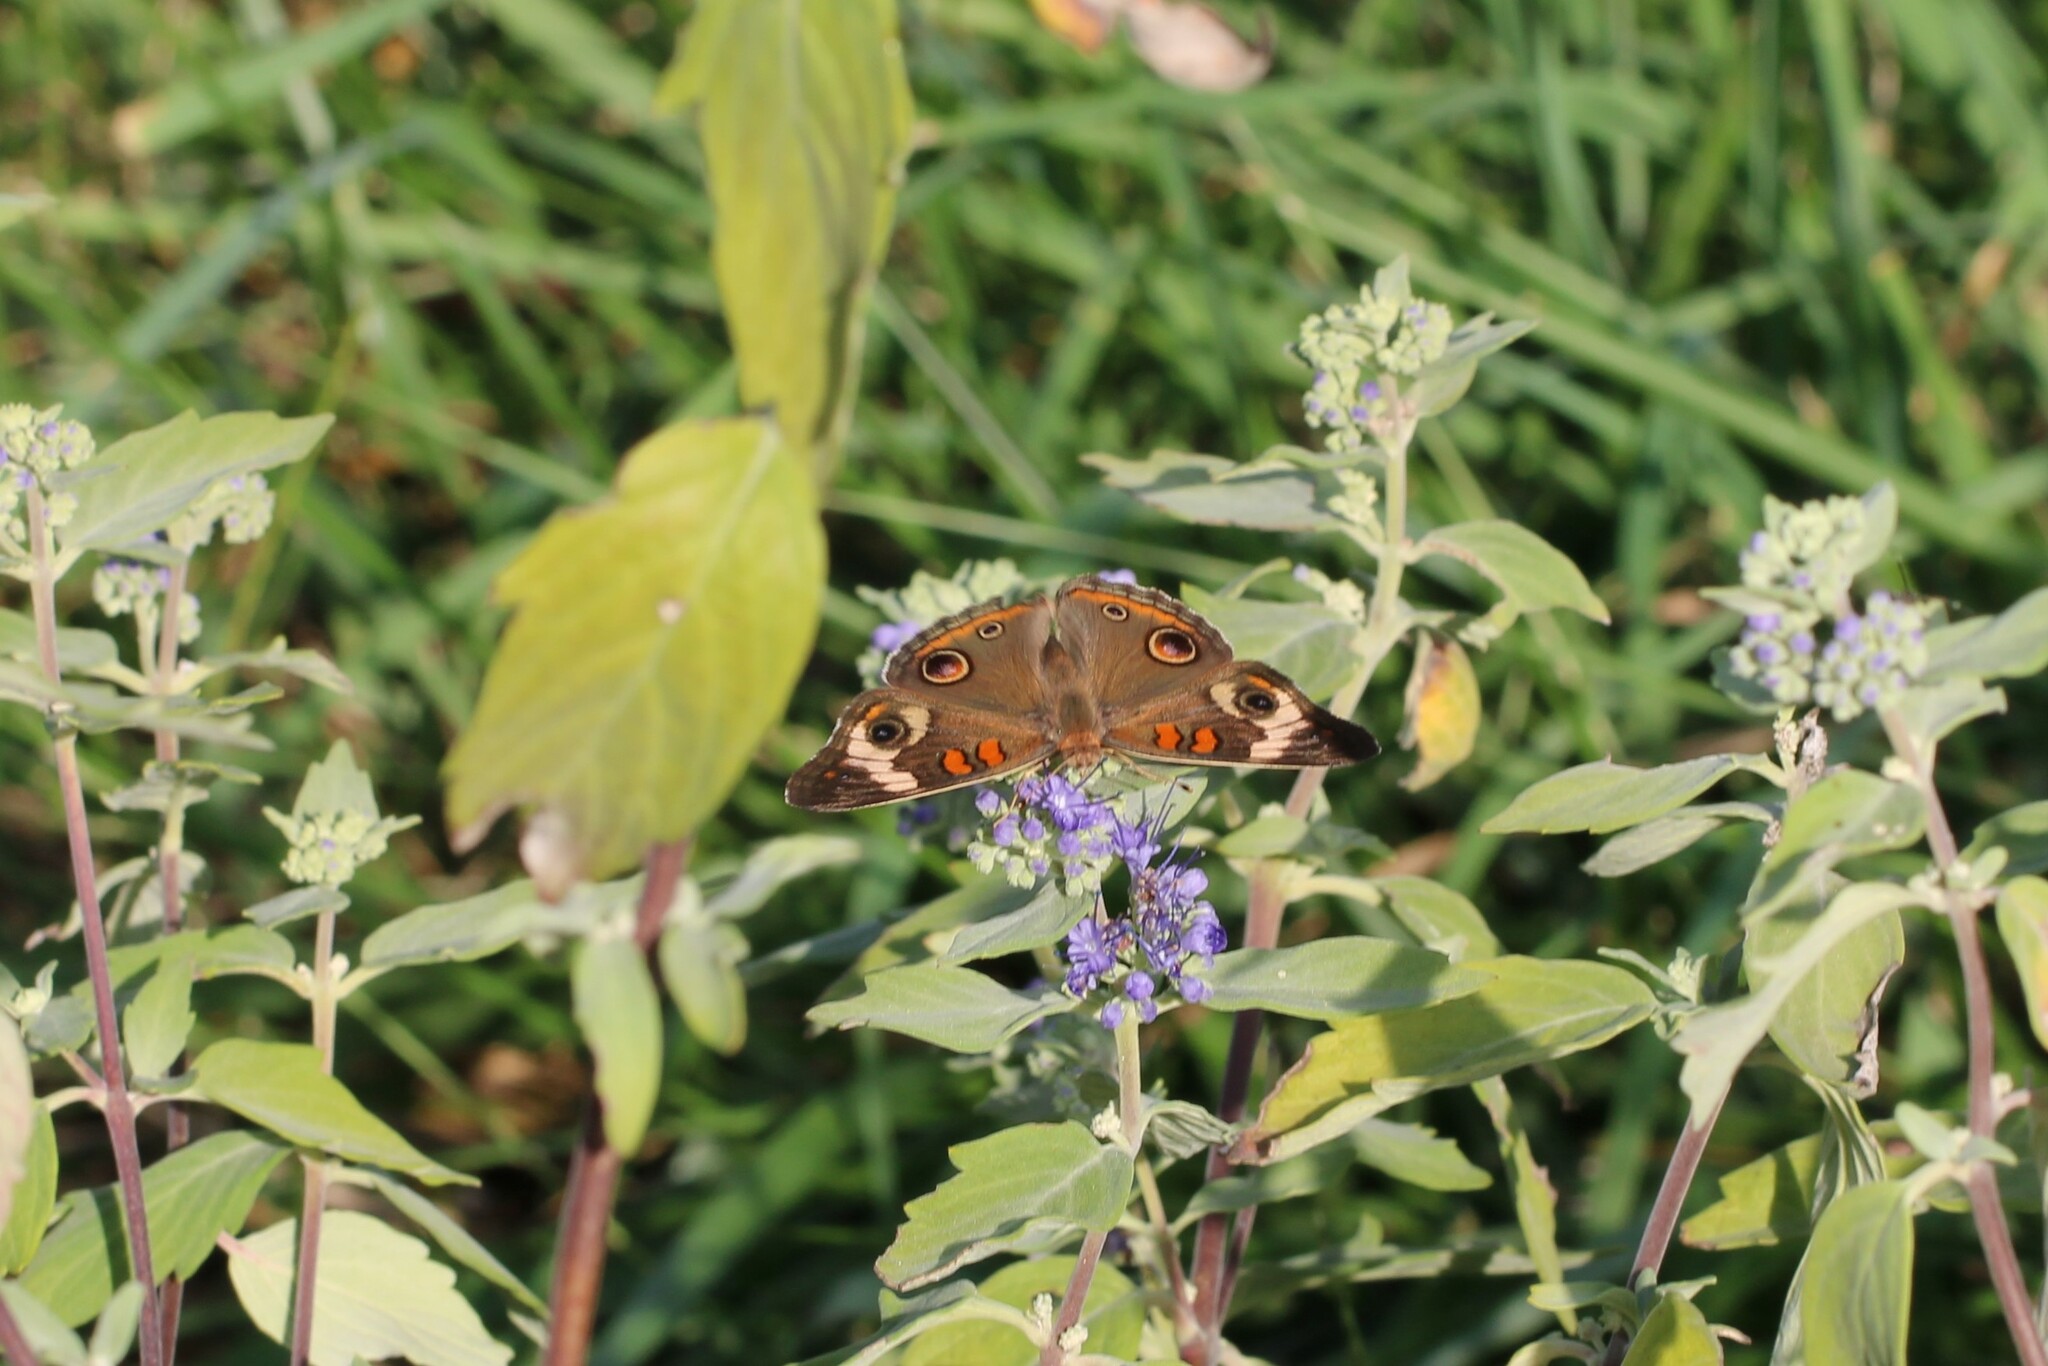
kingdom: Animalia
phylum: Arthropoda
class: Insecta
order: Lepidoptera
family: Nymphalidae
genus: Junonia
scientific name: Junonia coenia
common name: Common buckeye
